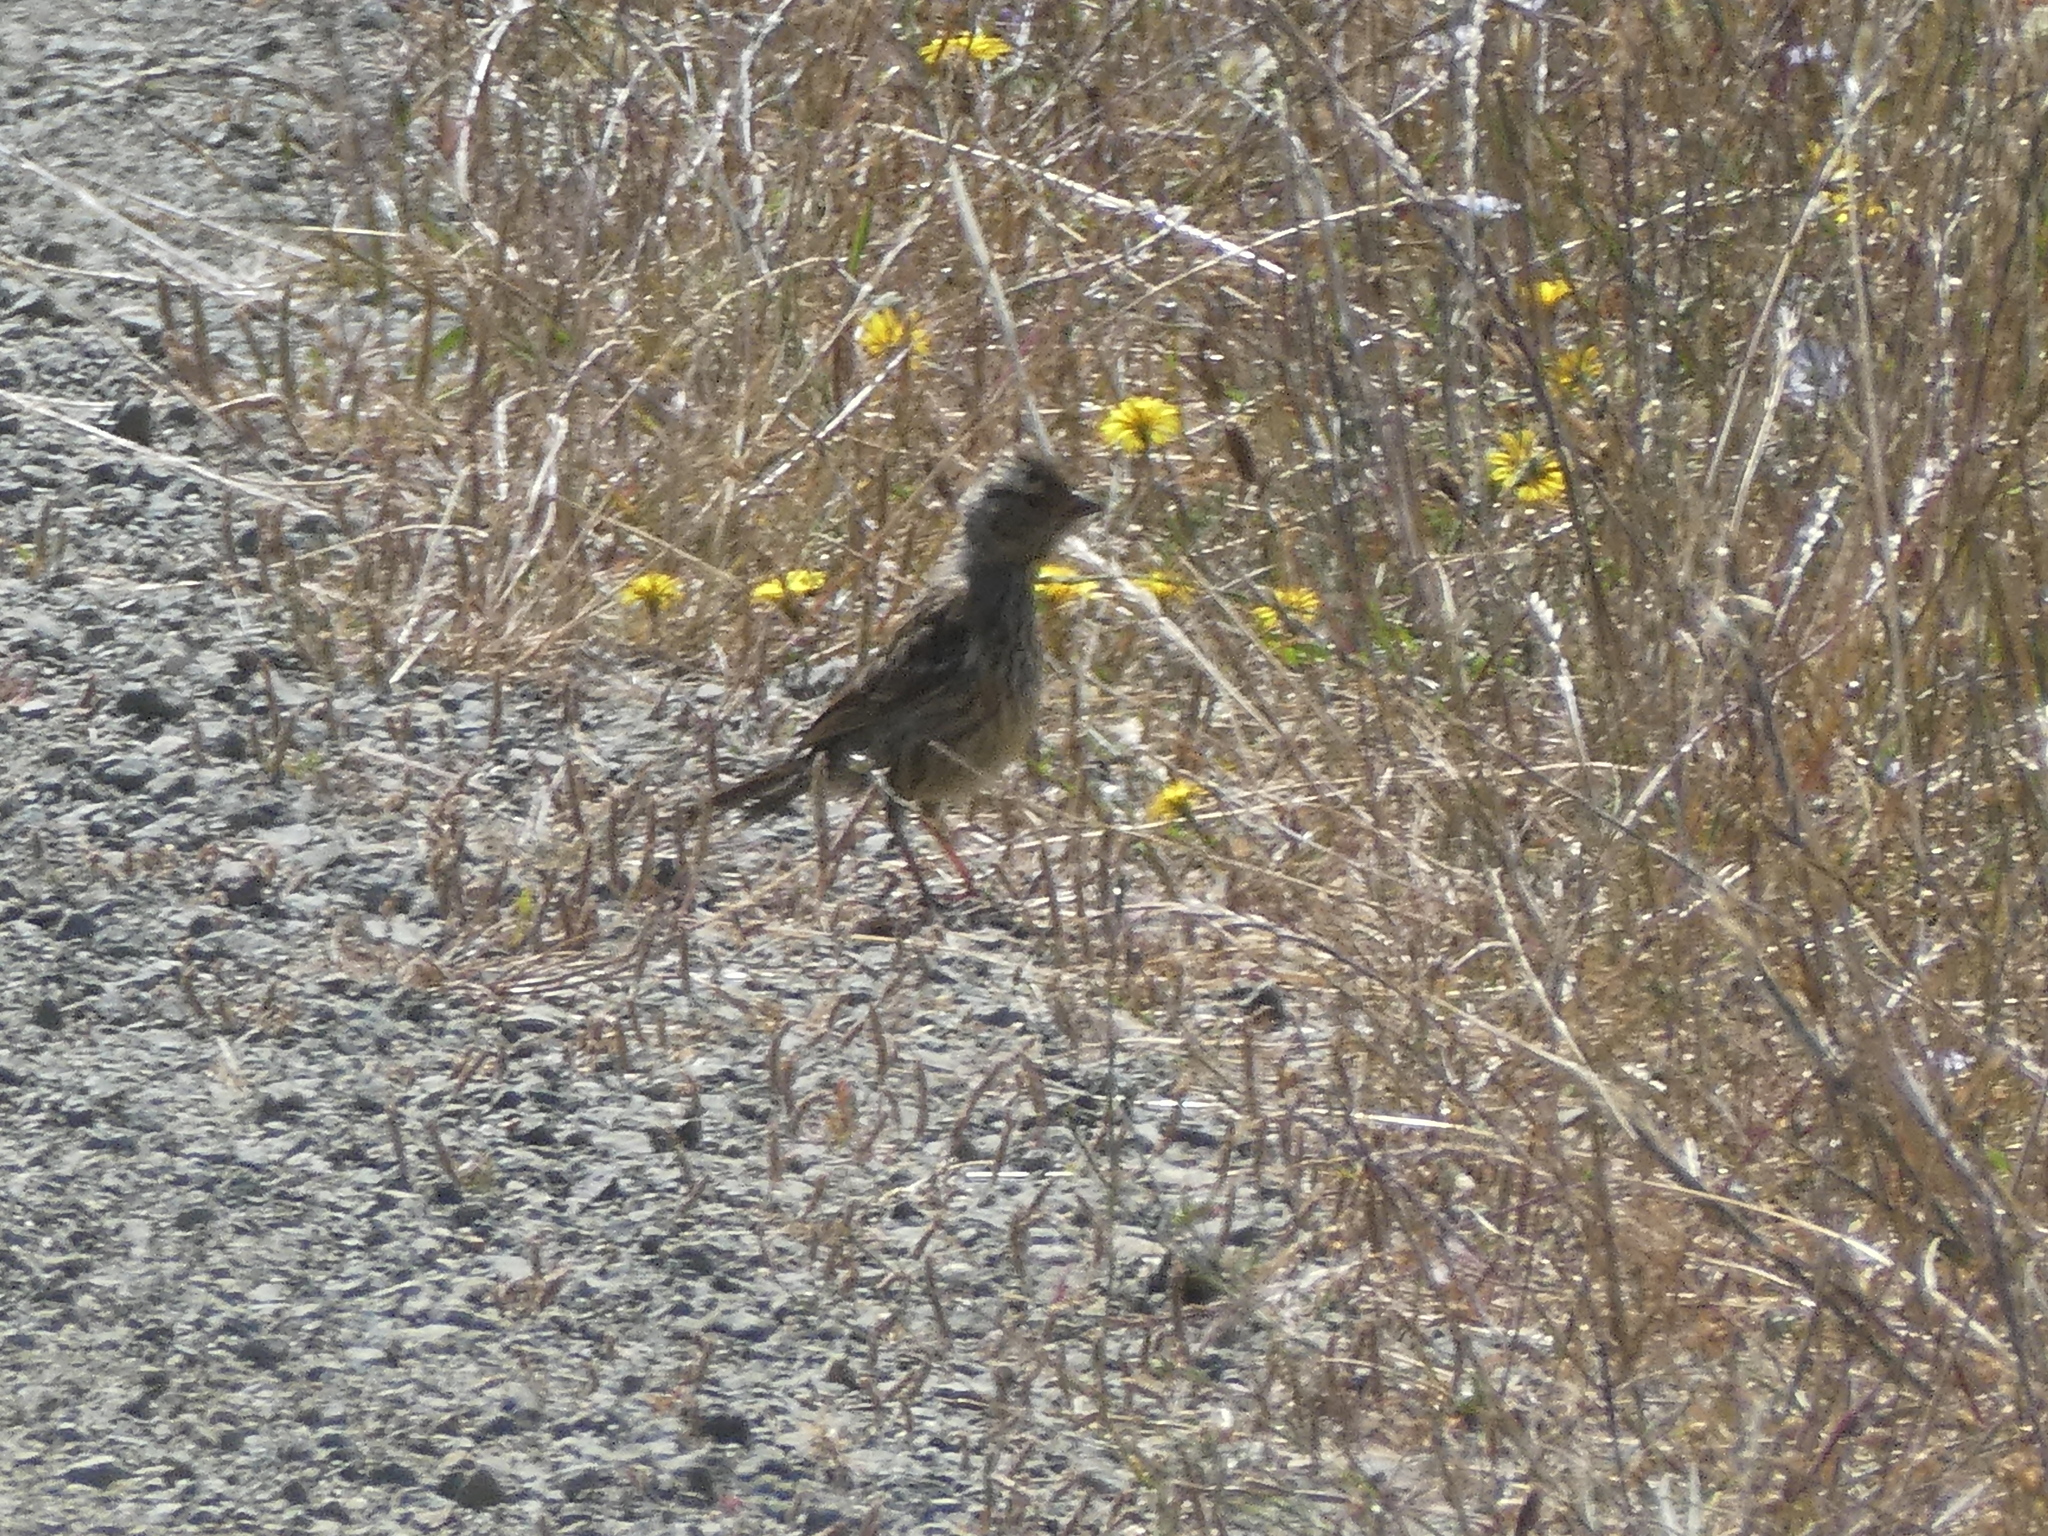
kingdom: Animalia
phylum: Chordata
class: Aves
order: Passeriformes
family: Passerellidae
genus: Zonotrichia
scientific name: Zonotrichia leucophrys
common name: White-crowned sparrow
